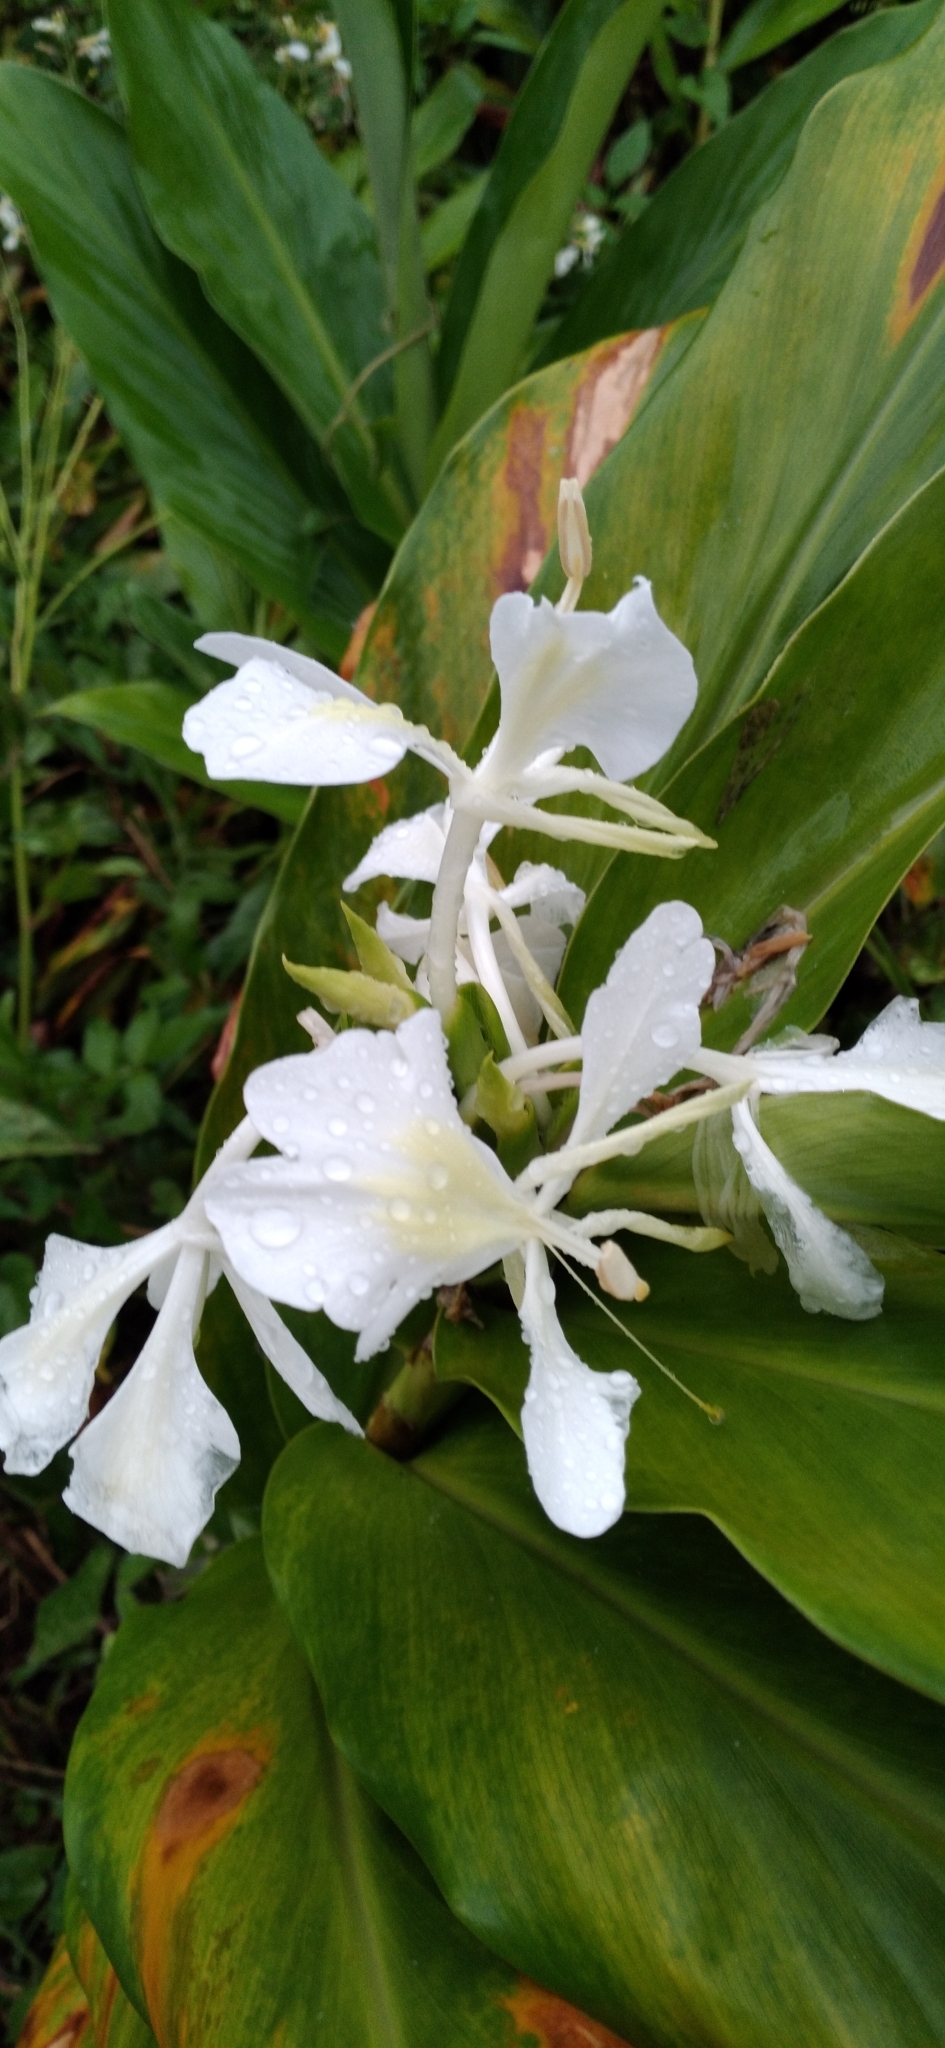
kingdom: Plantae
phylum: Tracheophyta
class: Liliopsida
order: Zingiberales
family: Zingiberaceae
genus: Hedychium
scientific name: Hedychium coronarium
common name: White garland-lily
